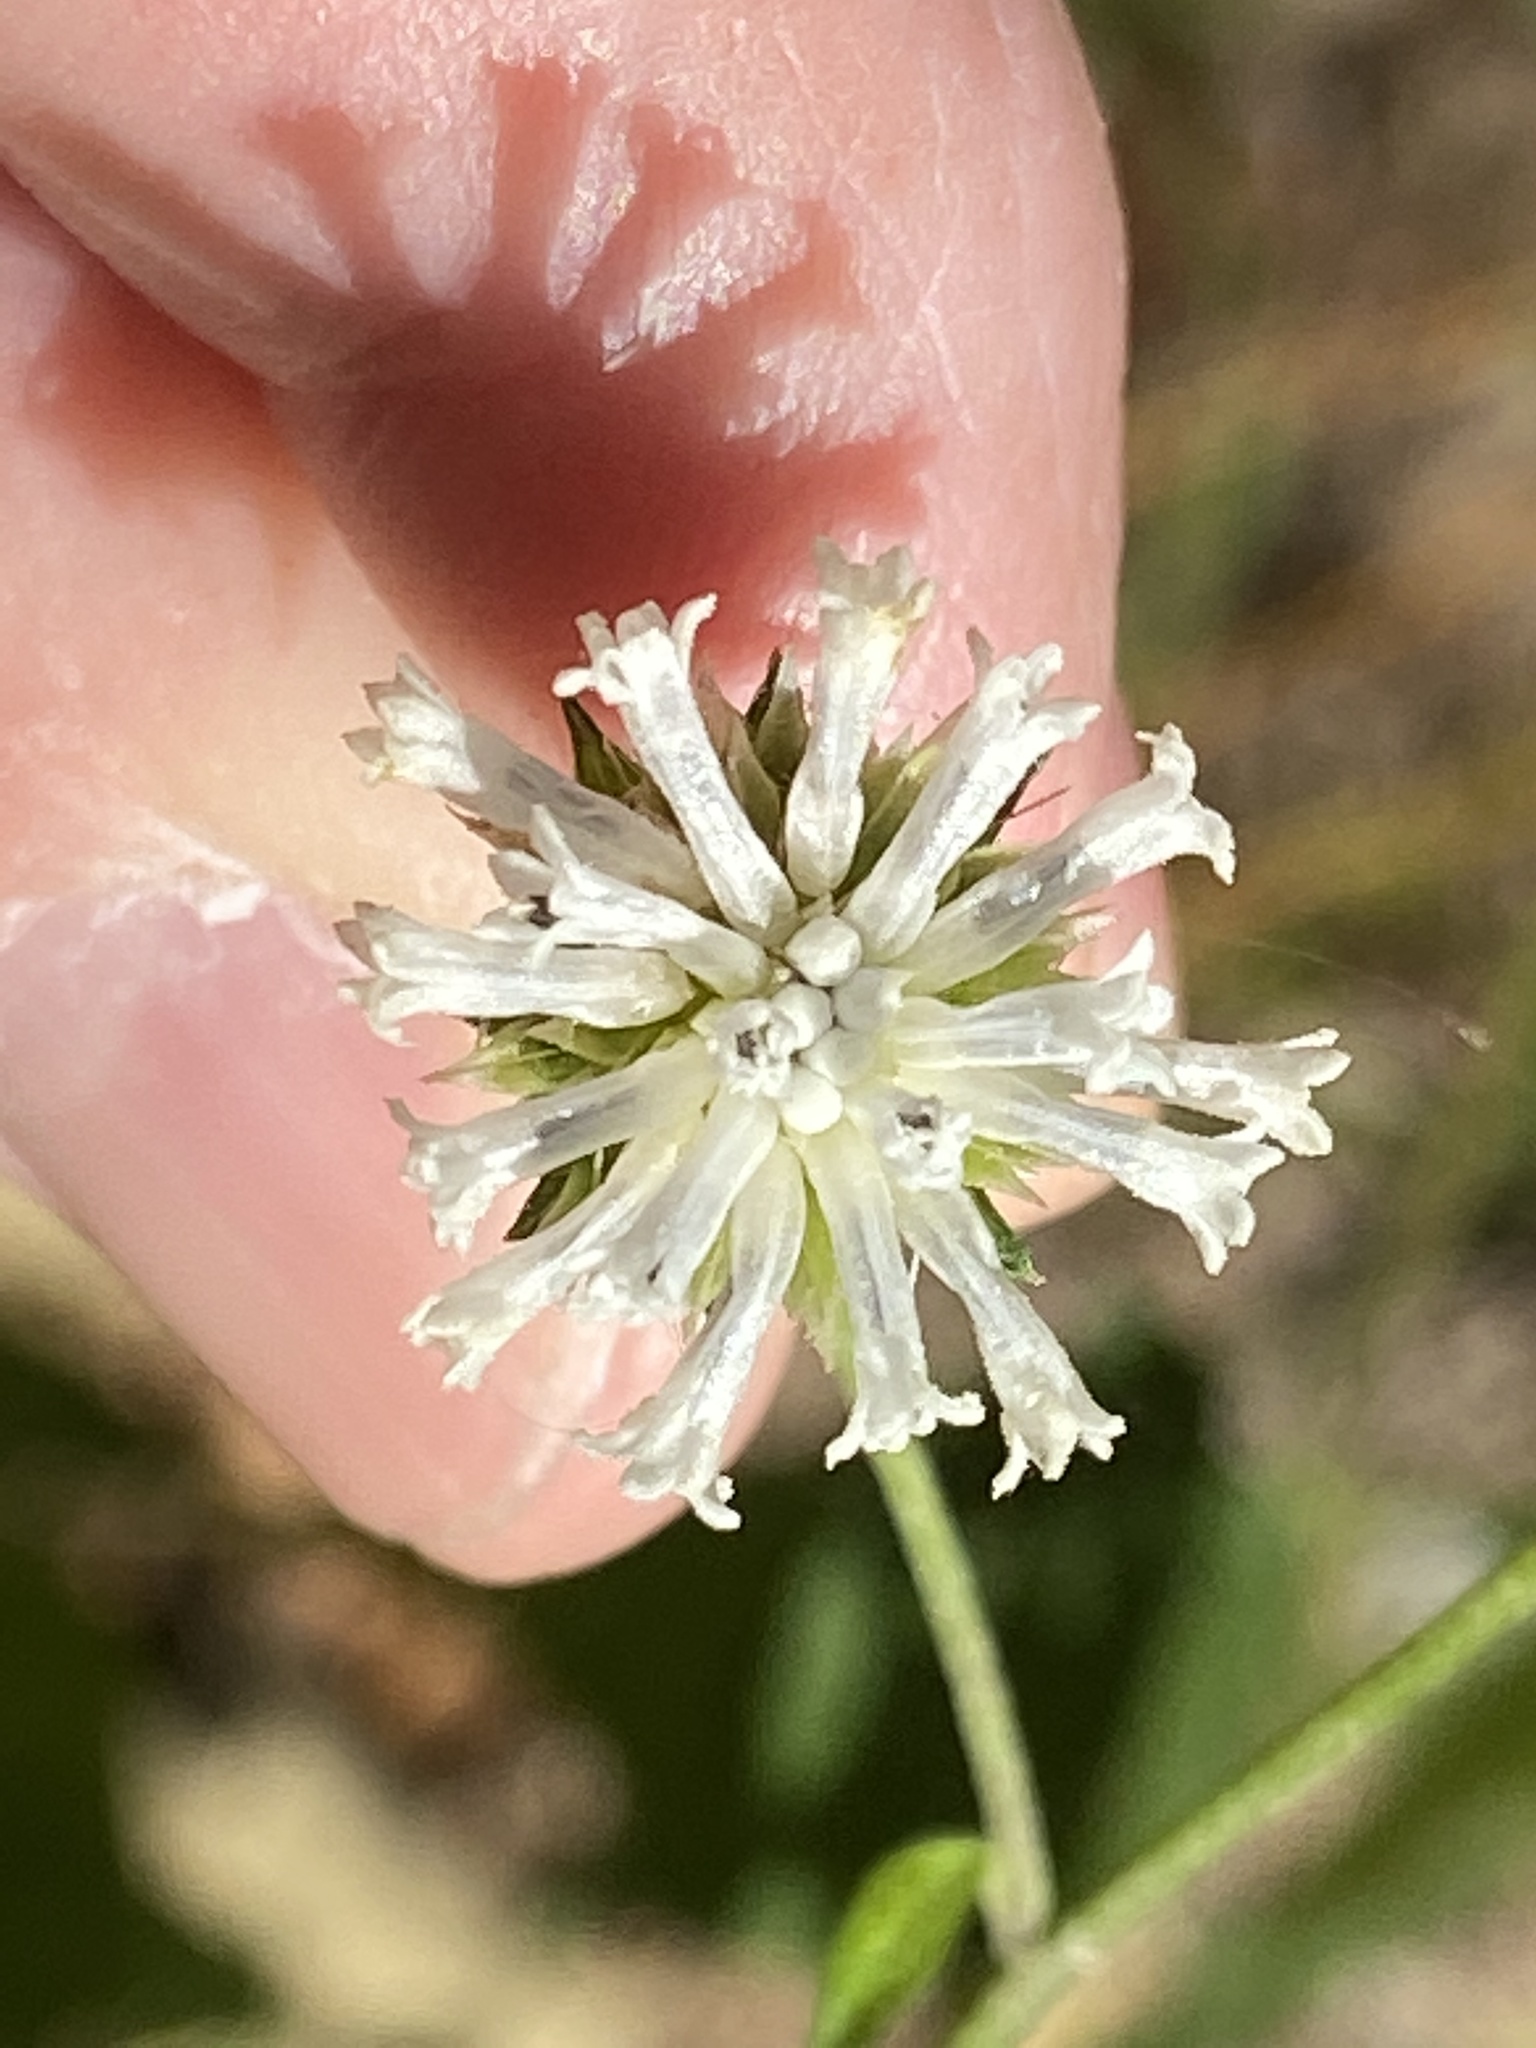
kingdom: Plantae
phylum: Tracheophyta
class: Magnoliopsida
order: Asterales
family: Asteraceae
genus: Melanthera
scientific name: Melanthera nivea
